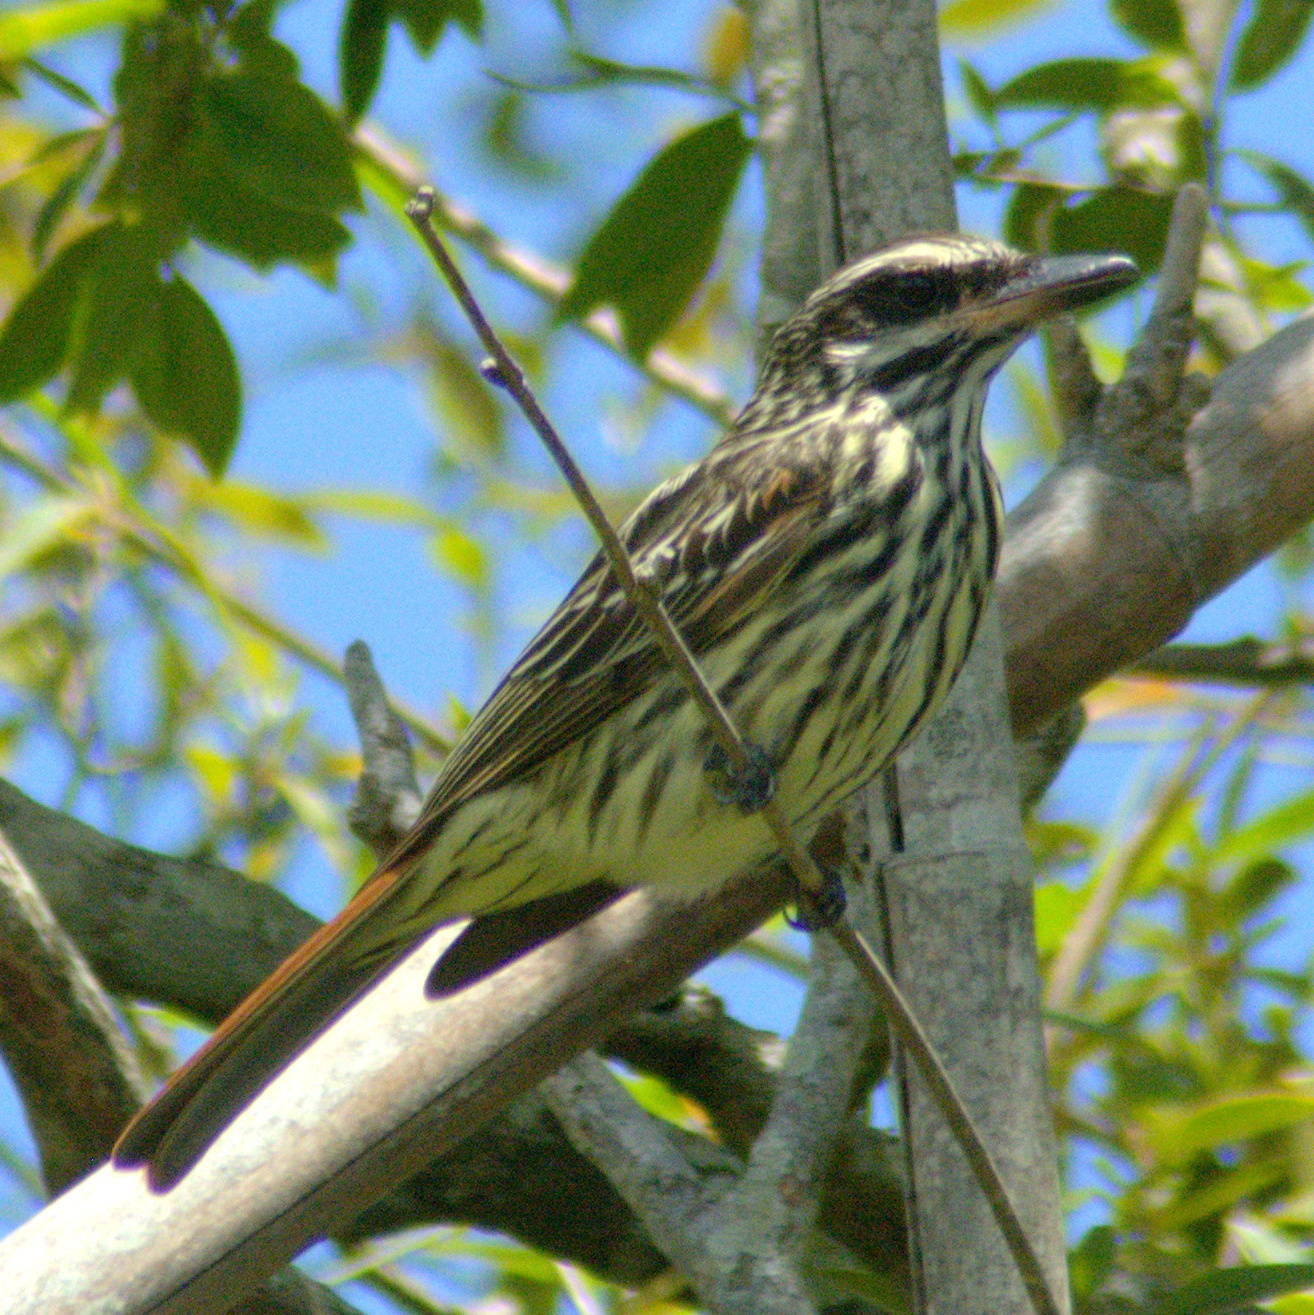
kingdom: Animalia
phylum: Chordata
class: Aves
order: Passeriformes
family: Tyrannidae
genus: Myiodynastes
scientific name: Myiodynastes maculatus
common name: Streaked flycatcher
